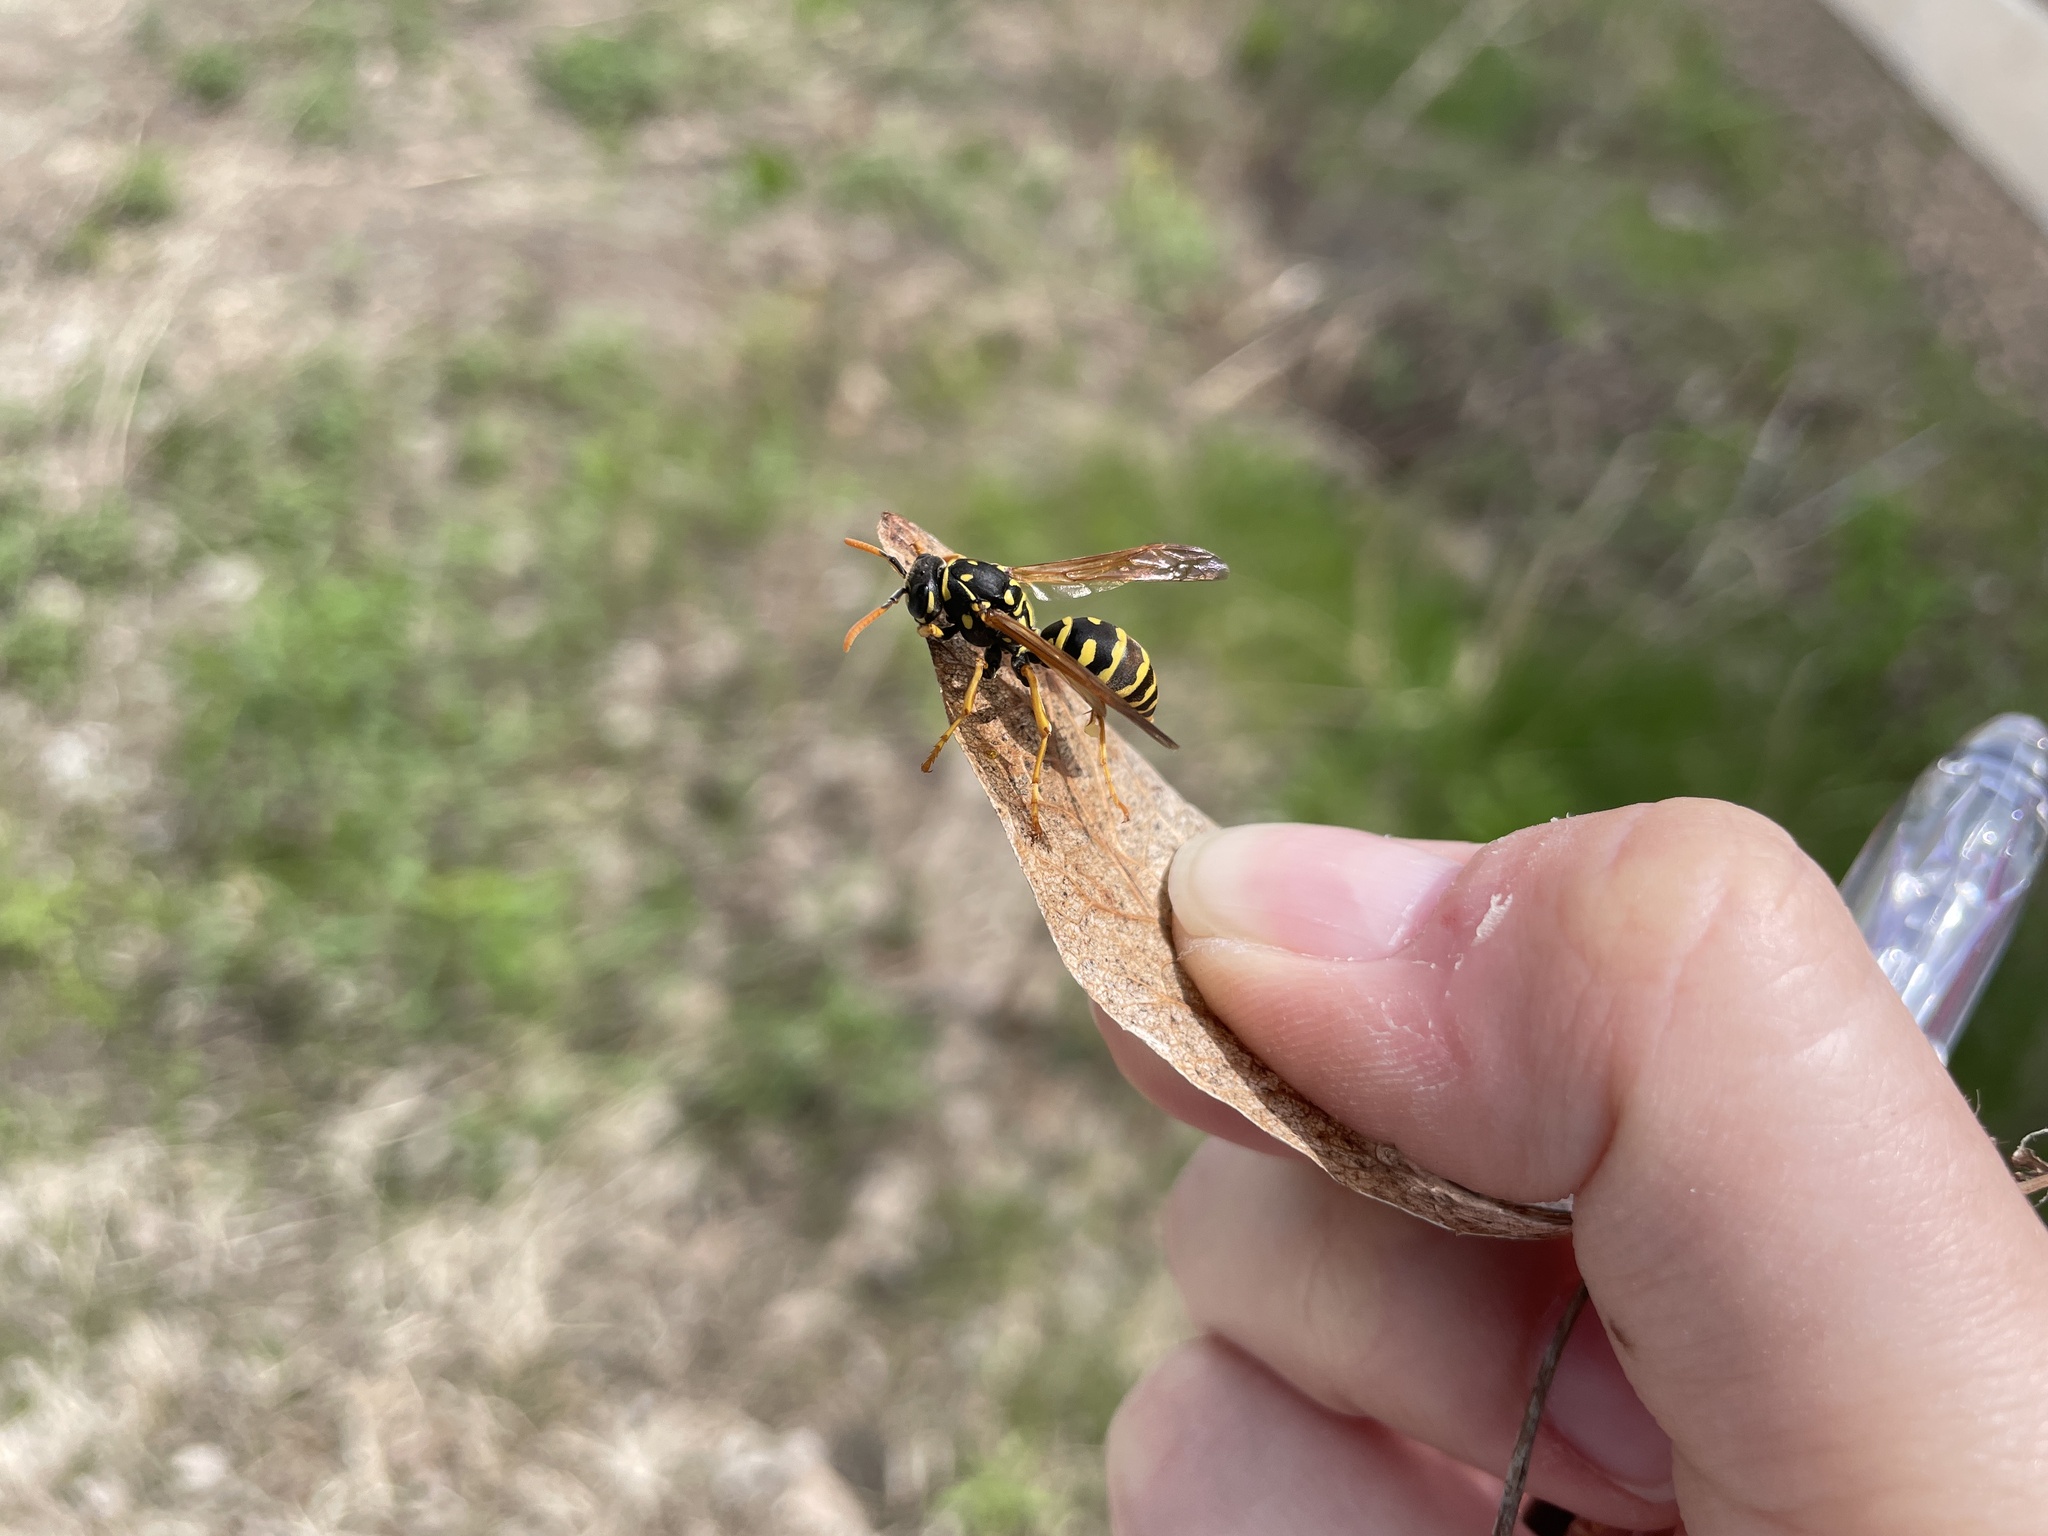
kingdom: Animalia
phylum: Arthropoda
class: Insecta
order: Hymenoptera
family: Eumenidae
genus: Polistes
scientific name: Polistes dominula
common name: Paper wasp
